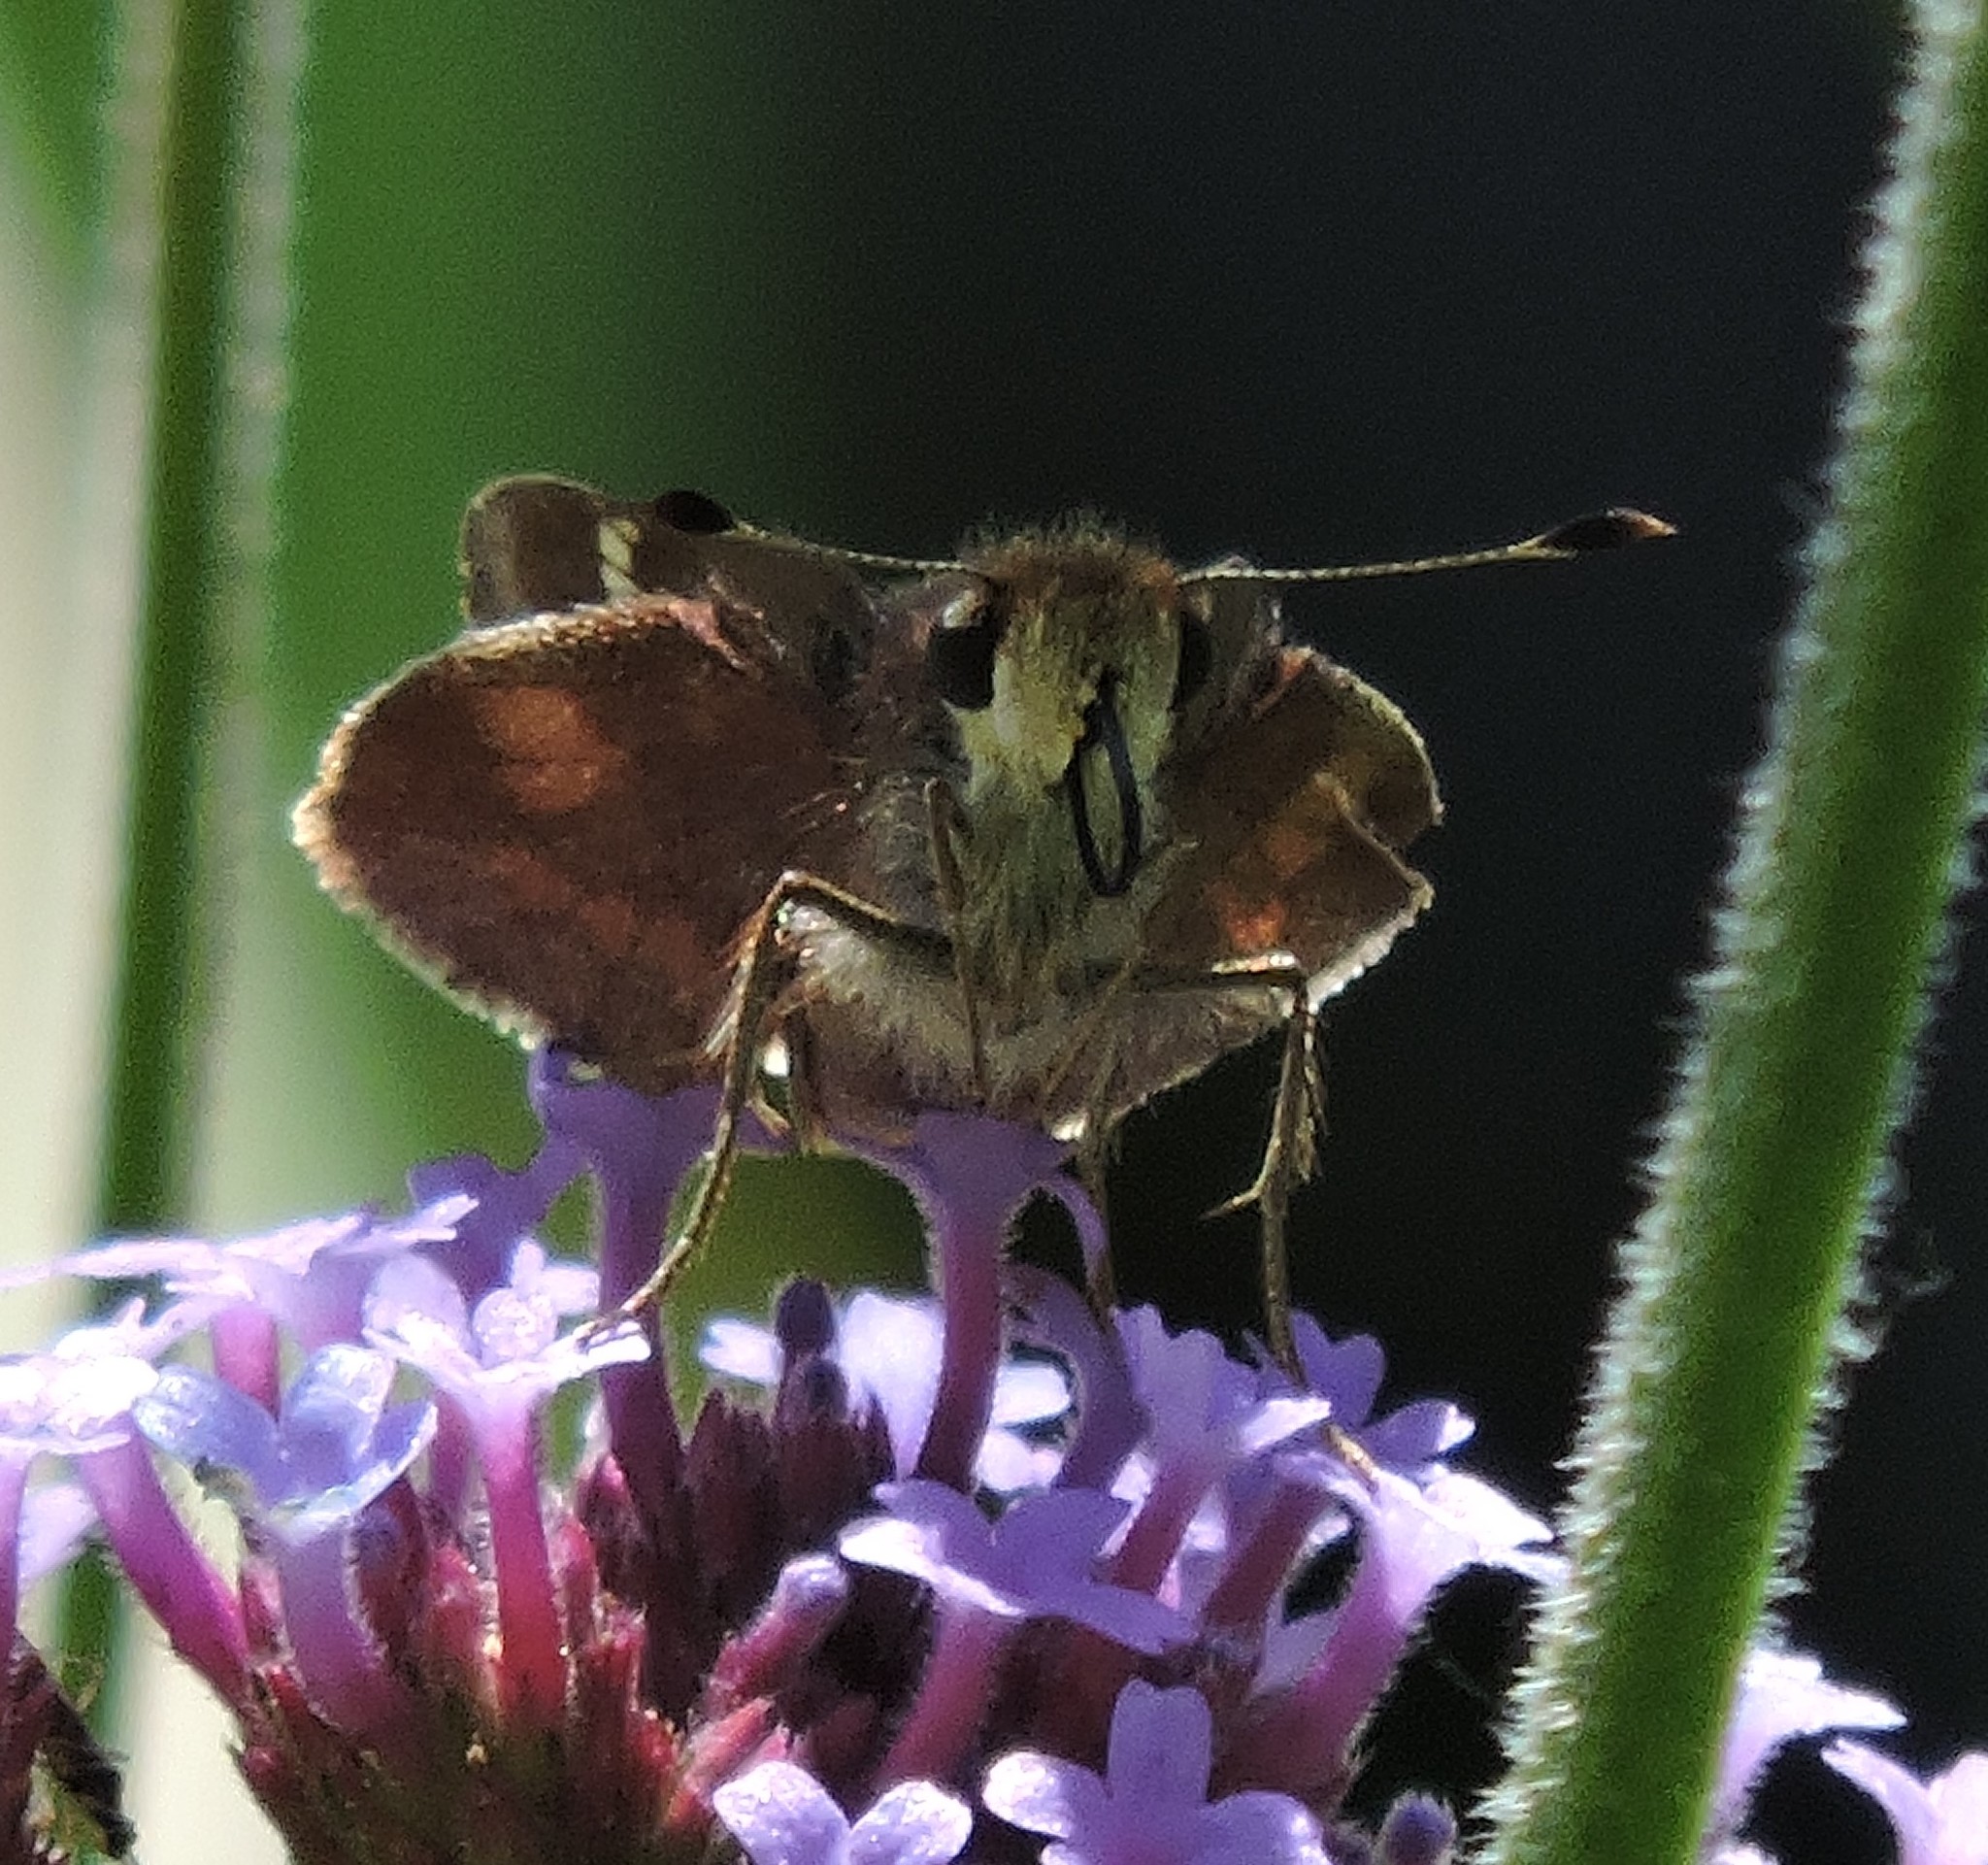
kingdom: Animalia
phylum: Arthropoda
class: Insecta
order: Lepidoptera
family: Hesperiidae
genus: Lon
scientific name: Lon melane
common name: Umber skipper
